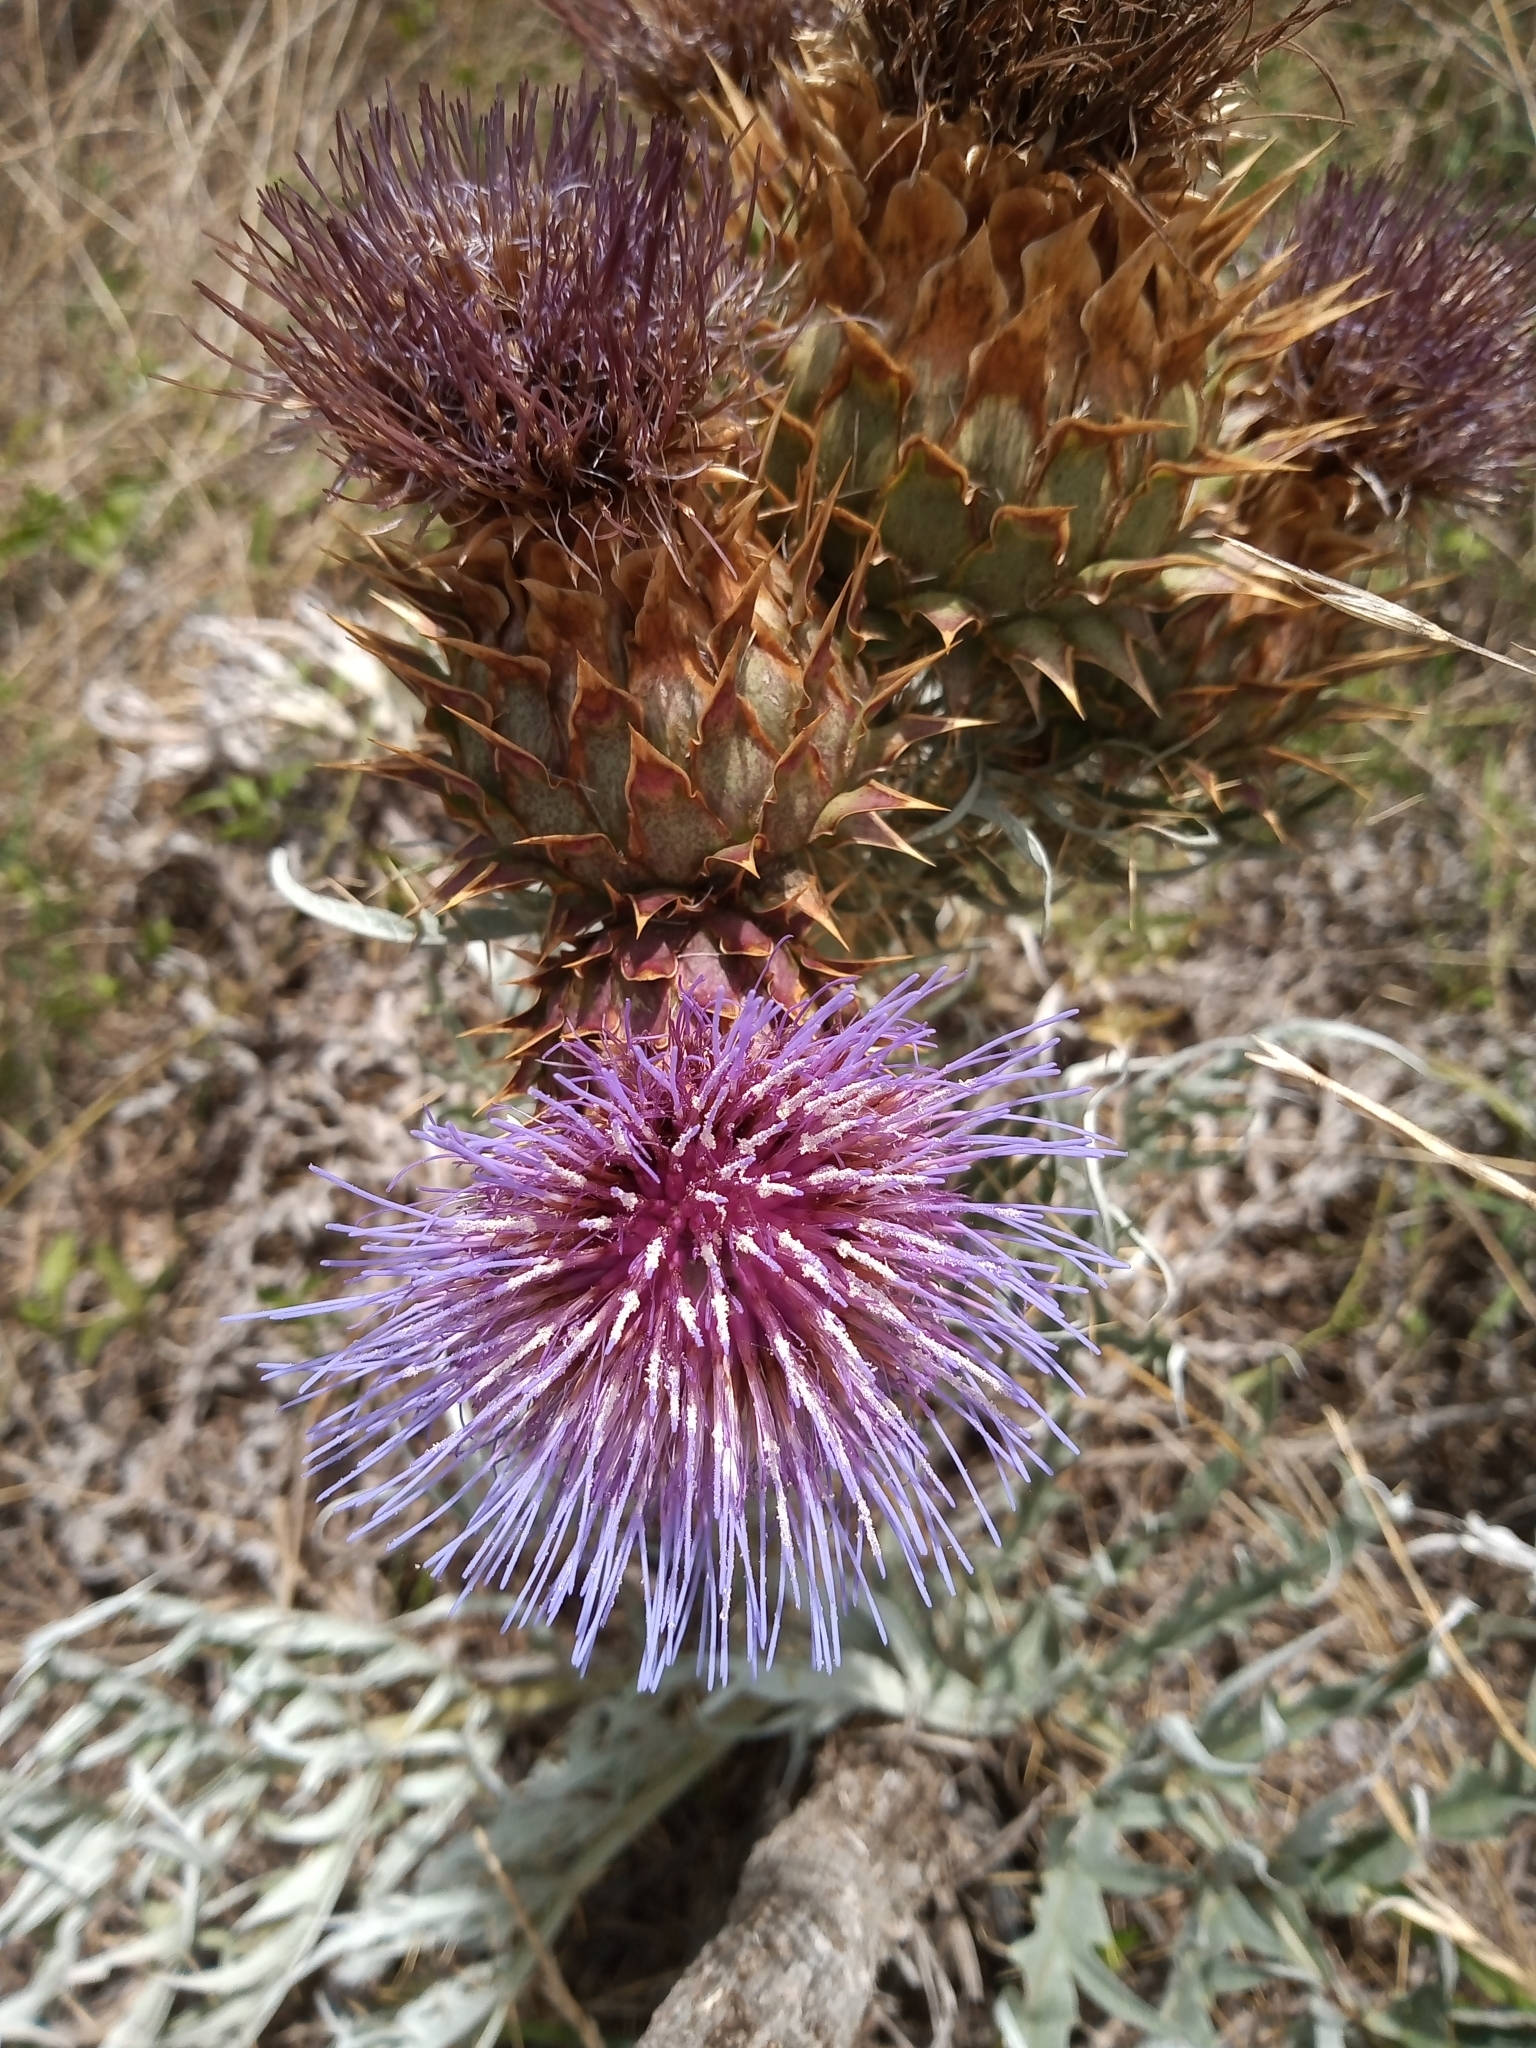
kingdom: Plantae
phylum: Tracheophyta
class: Magnoliopsida
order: Asterales
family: Asteraceae
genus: Cynara
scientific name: Cynara cardunculus
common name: Globe artichoke
